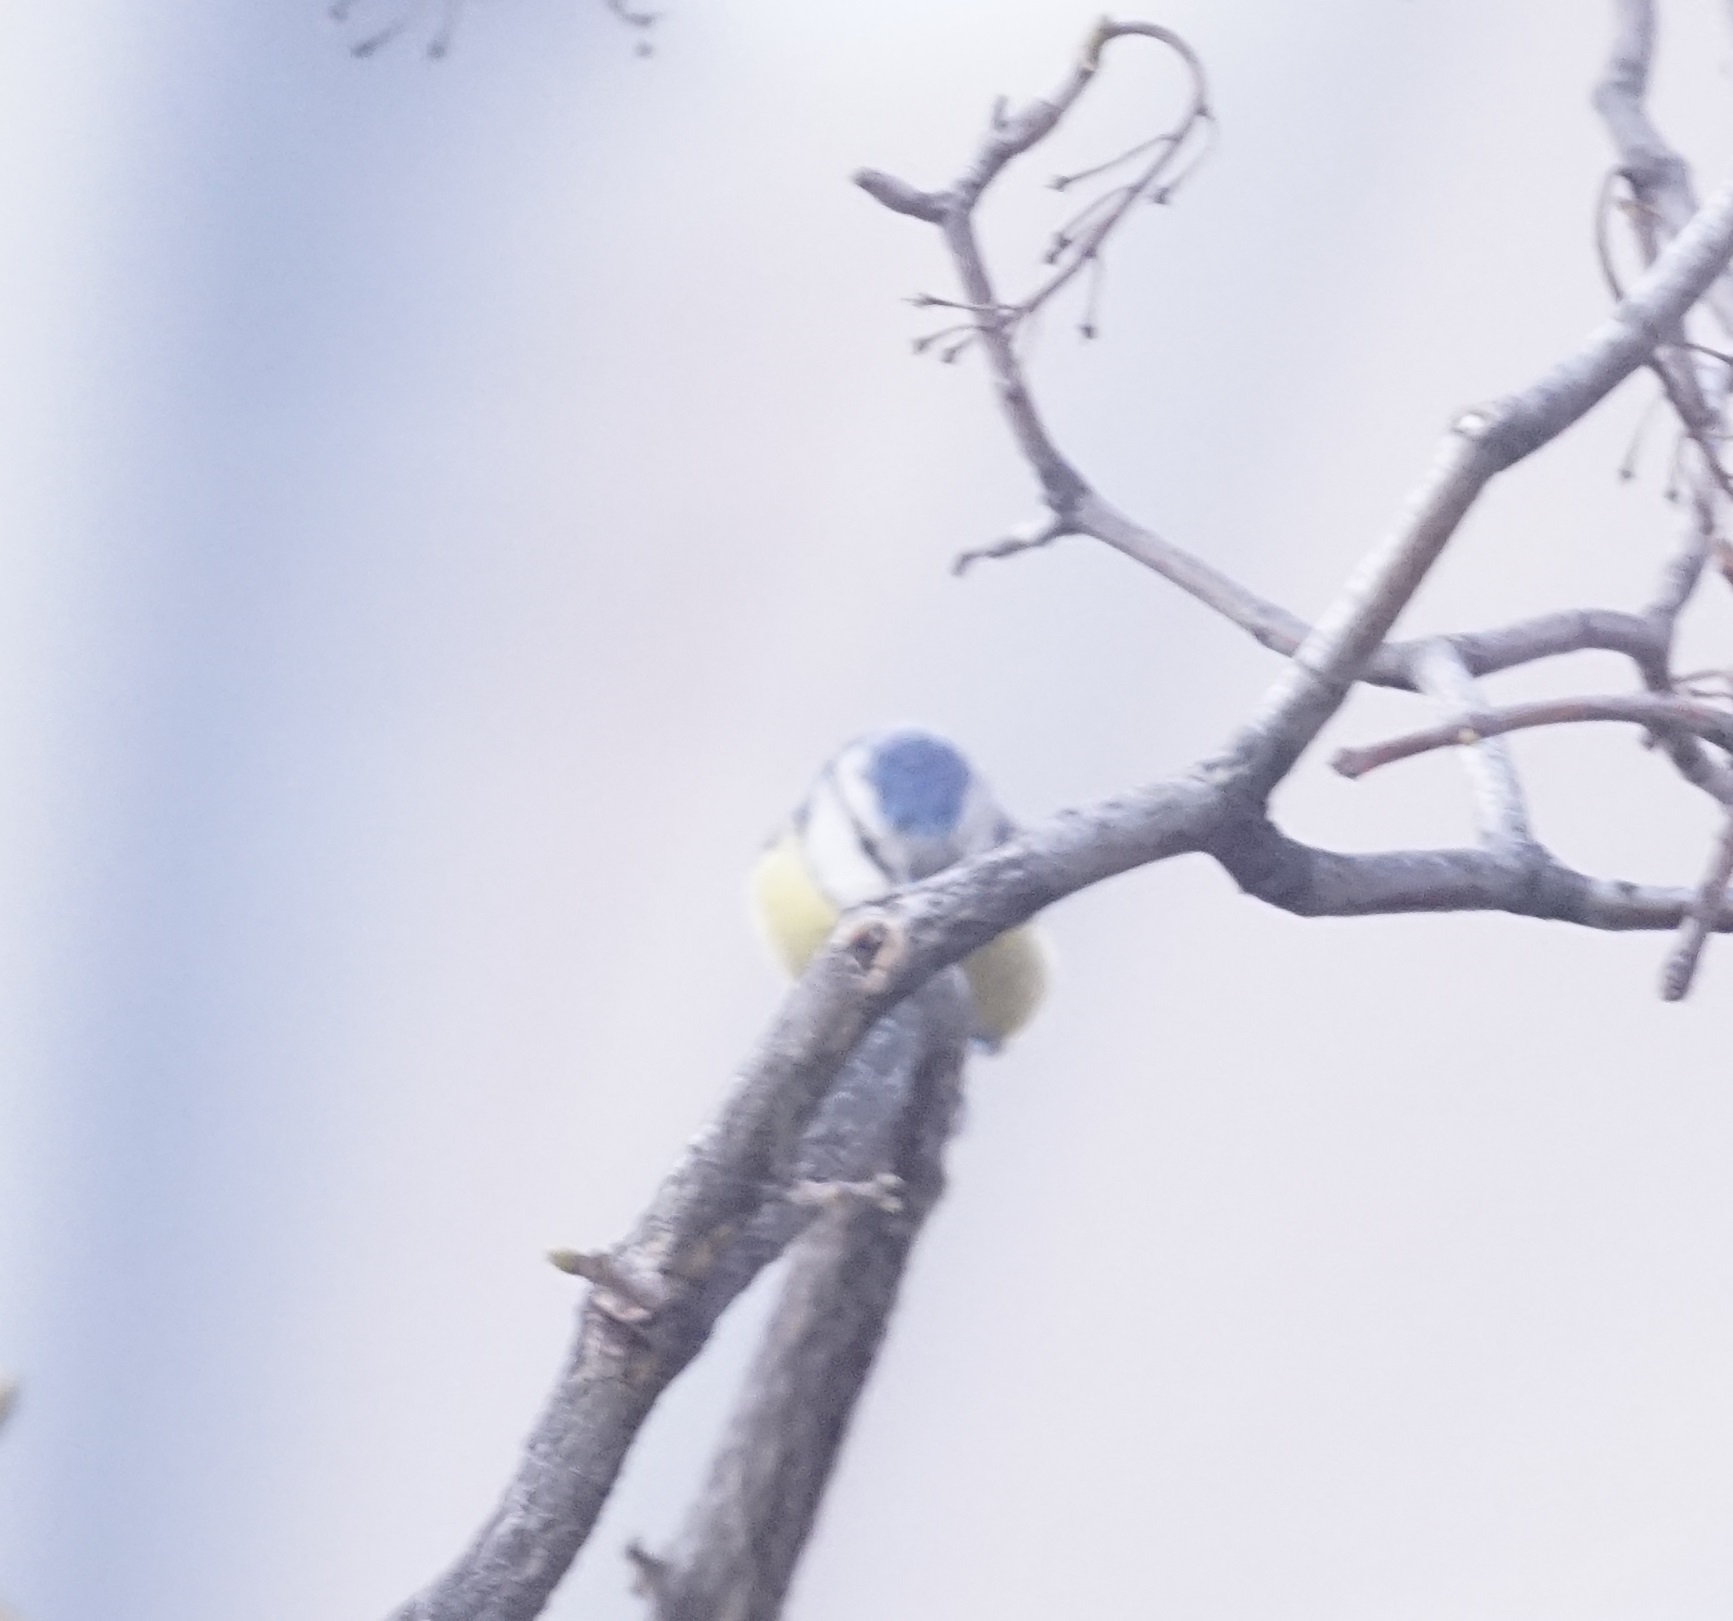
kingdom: Animalia
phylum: Chordata
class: Aves
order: Passeriformes
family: Paridae
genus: Cyanistes
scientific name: Cyanistes caeruleus
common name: Eurasian blue tit
